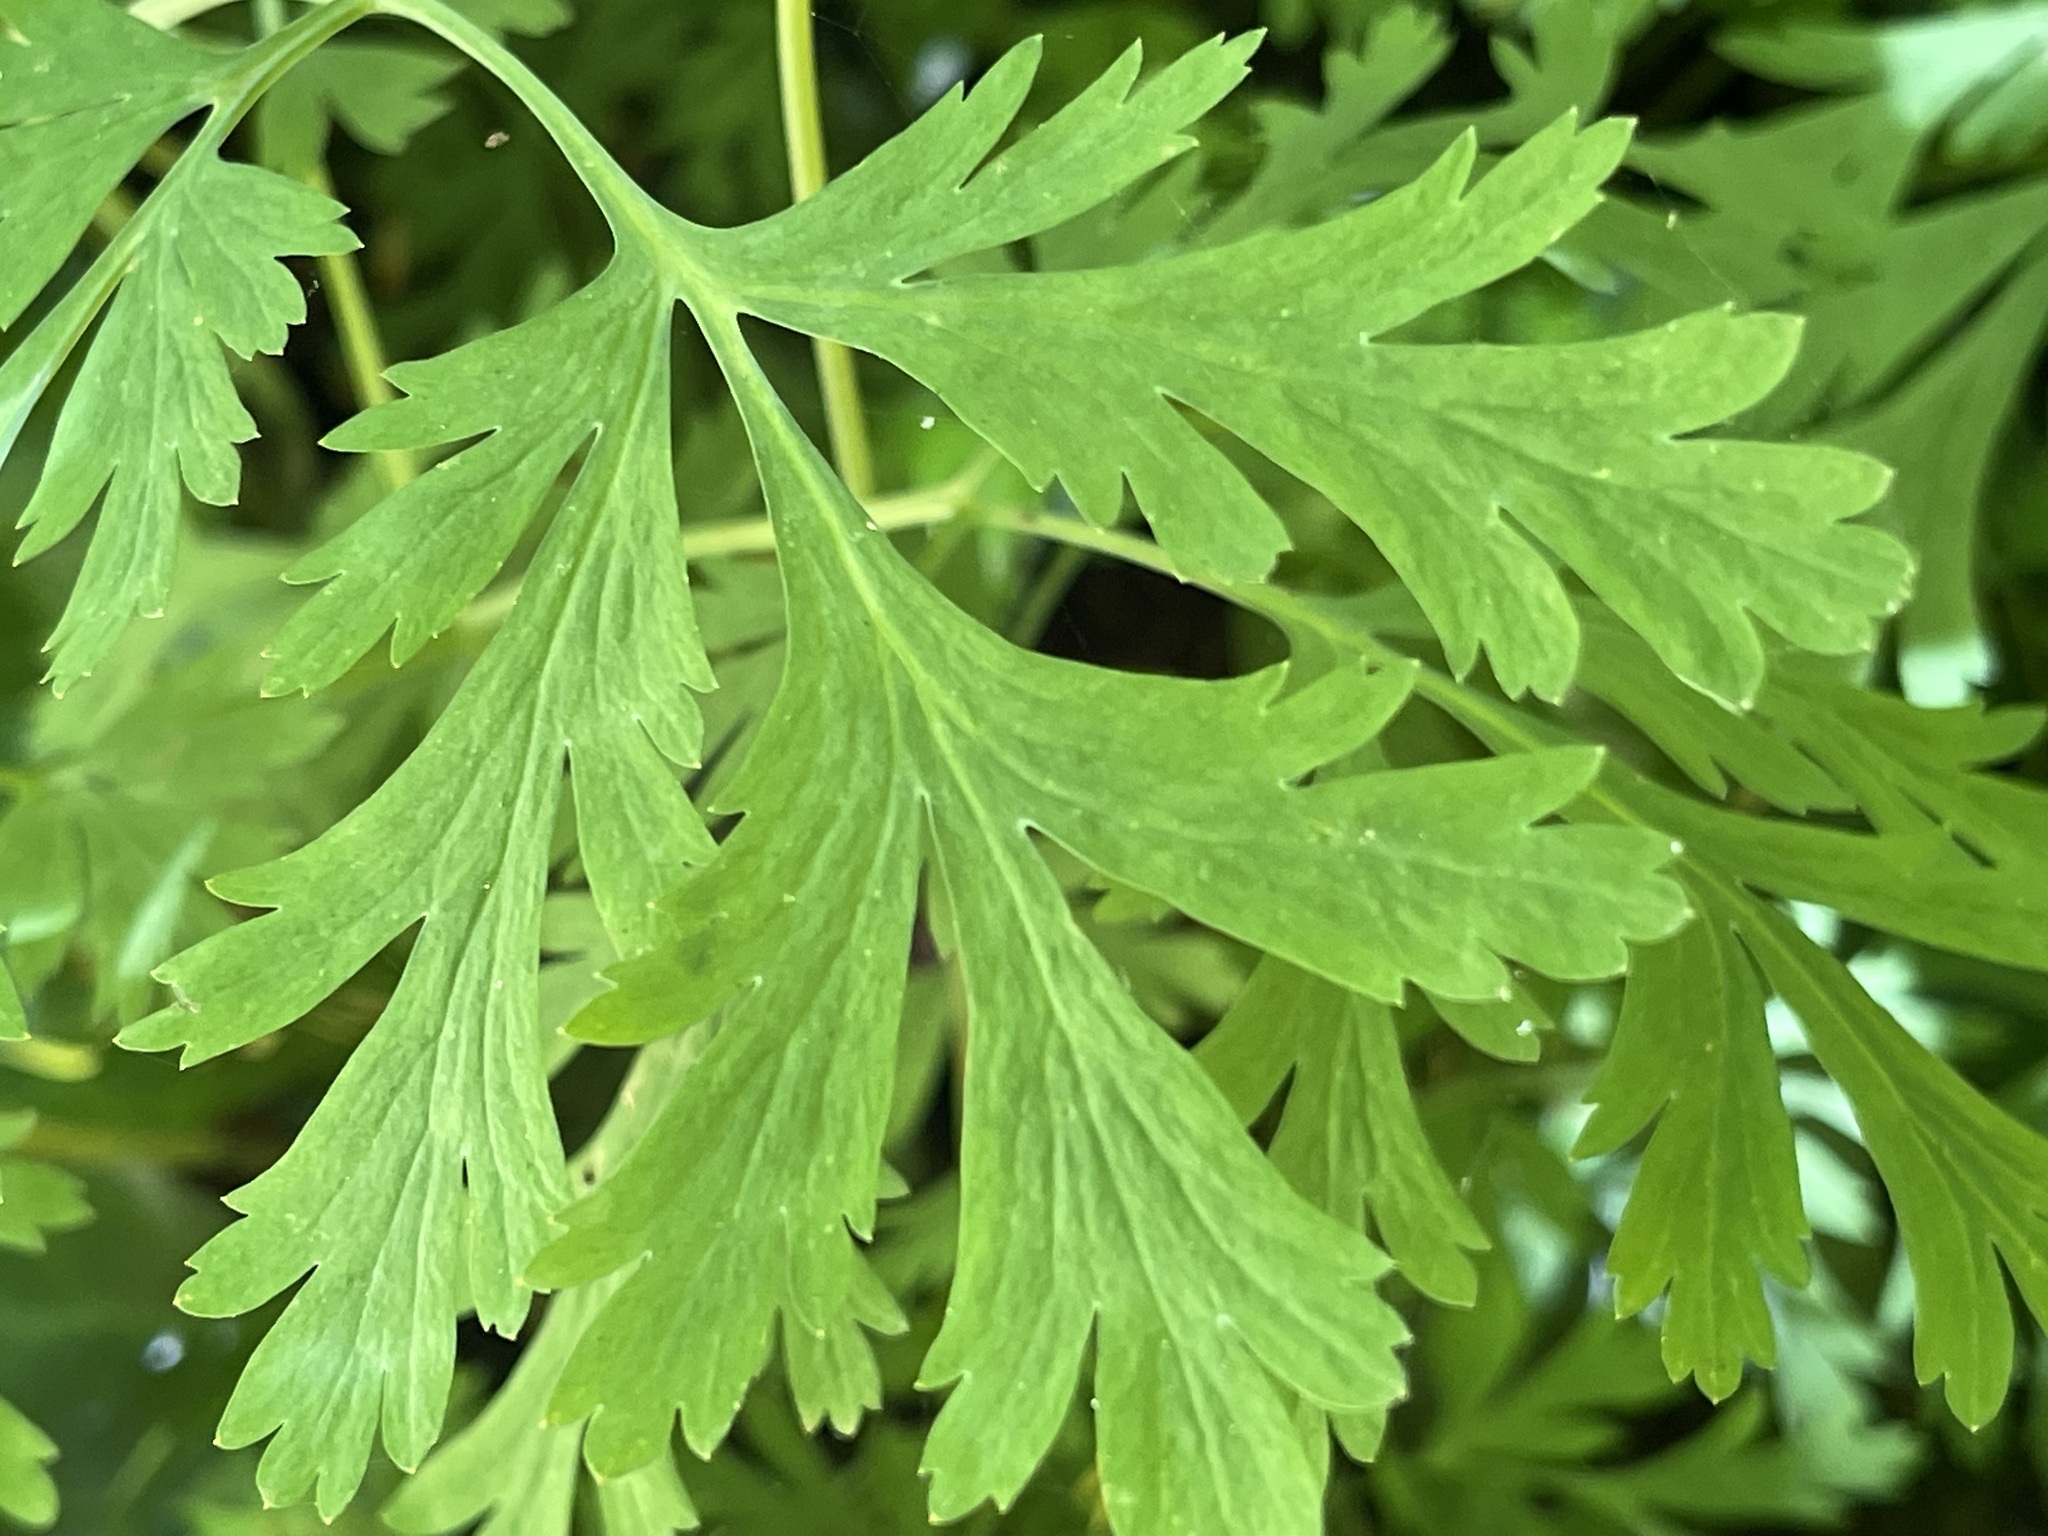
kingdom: Plantae
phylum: Tracheophyta
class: Magnoliopsida
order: Ranunculales
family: Papaveraceae
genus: Dicentra
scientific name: Dicentra formosa
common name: Bleeding-heart
